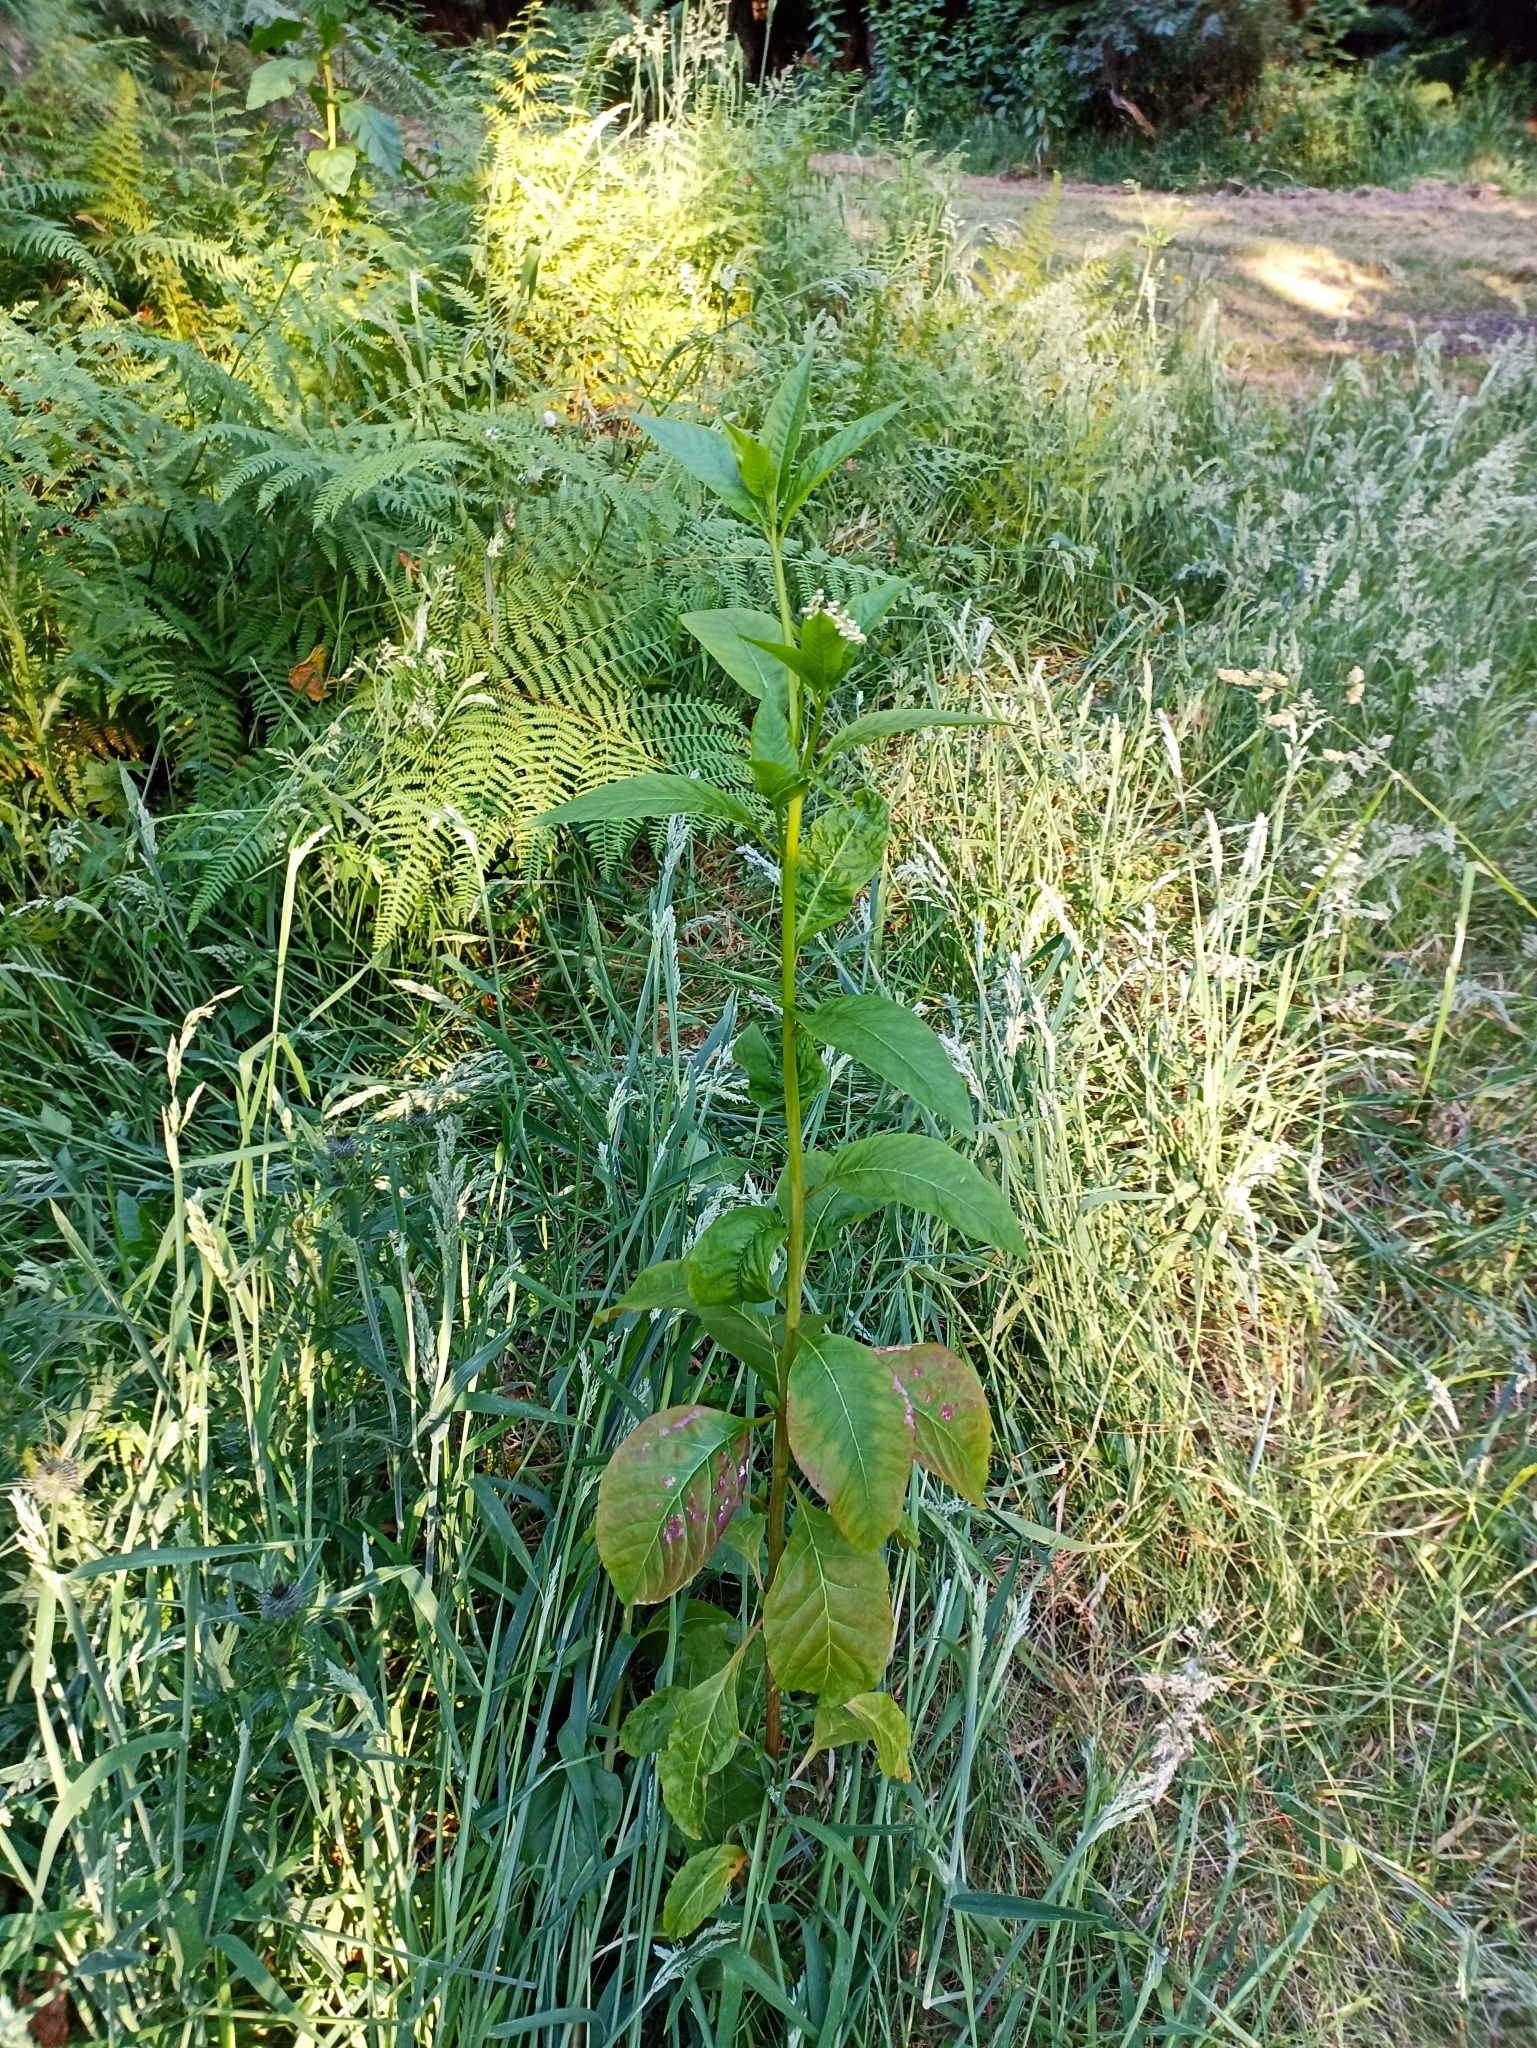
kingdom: Plantae
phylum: Tracheophyta
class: Magnoliopsida
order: Caryophyllales
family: Phytolaccaceae
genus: Phytolacca
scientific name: Phytolacca americana
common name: American pokeweed
